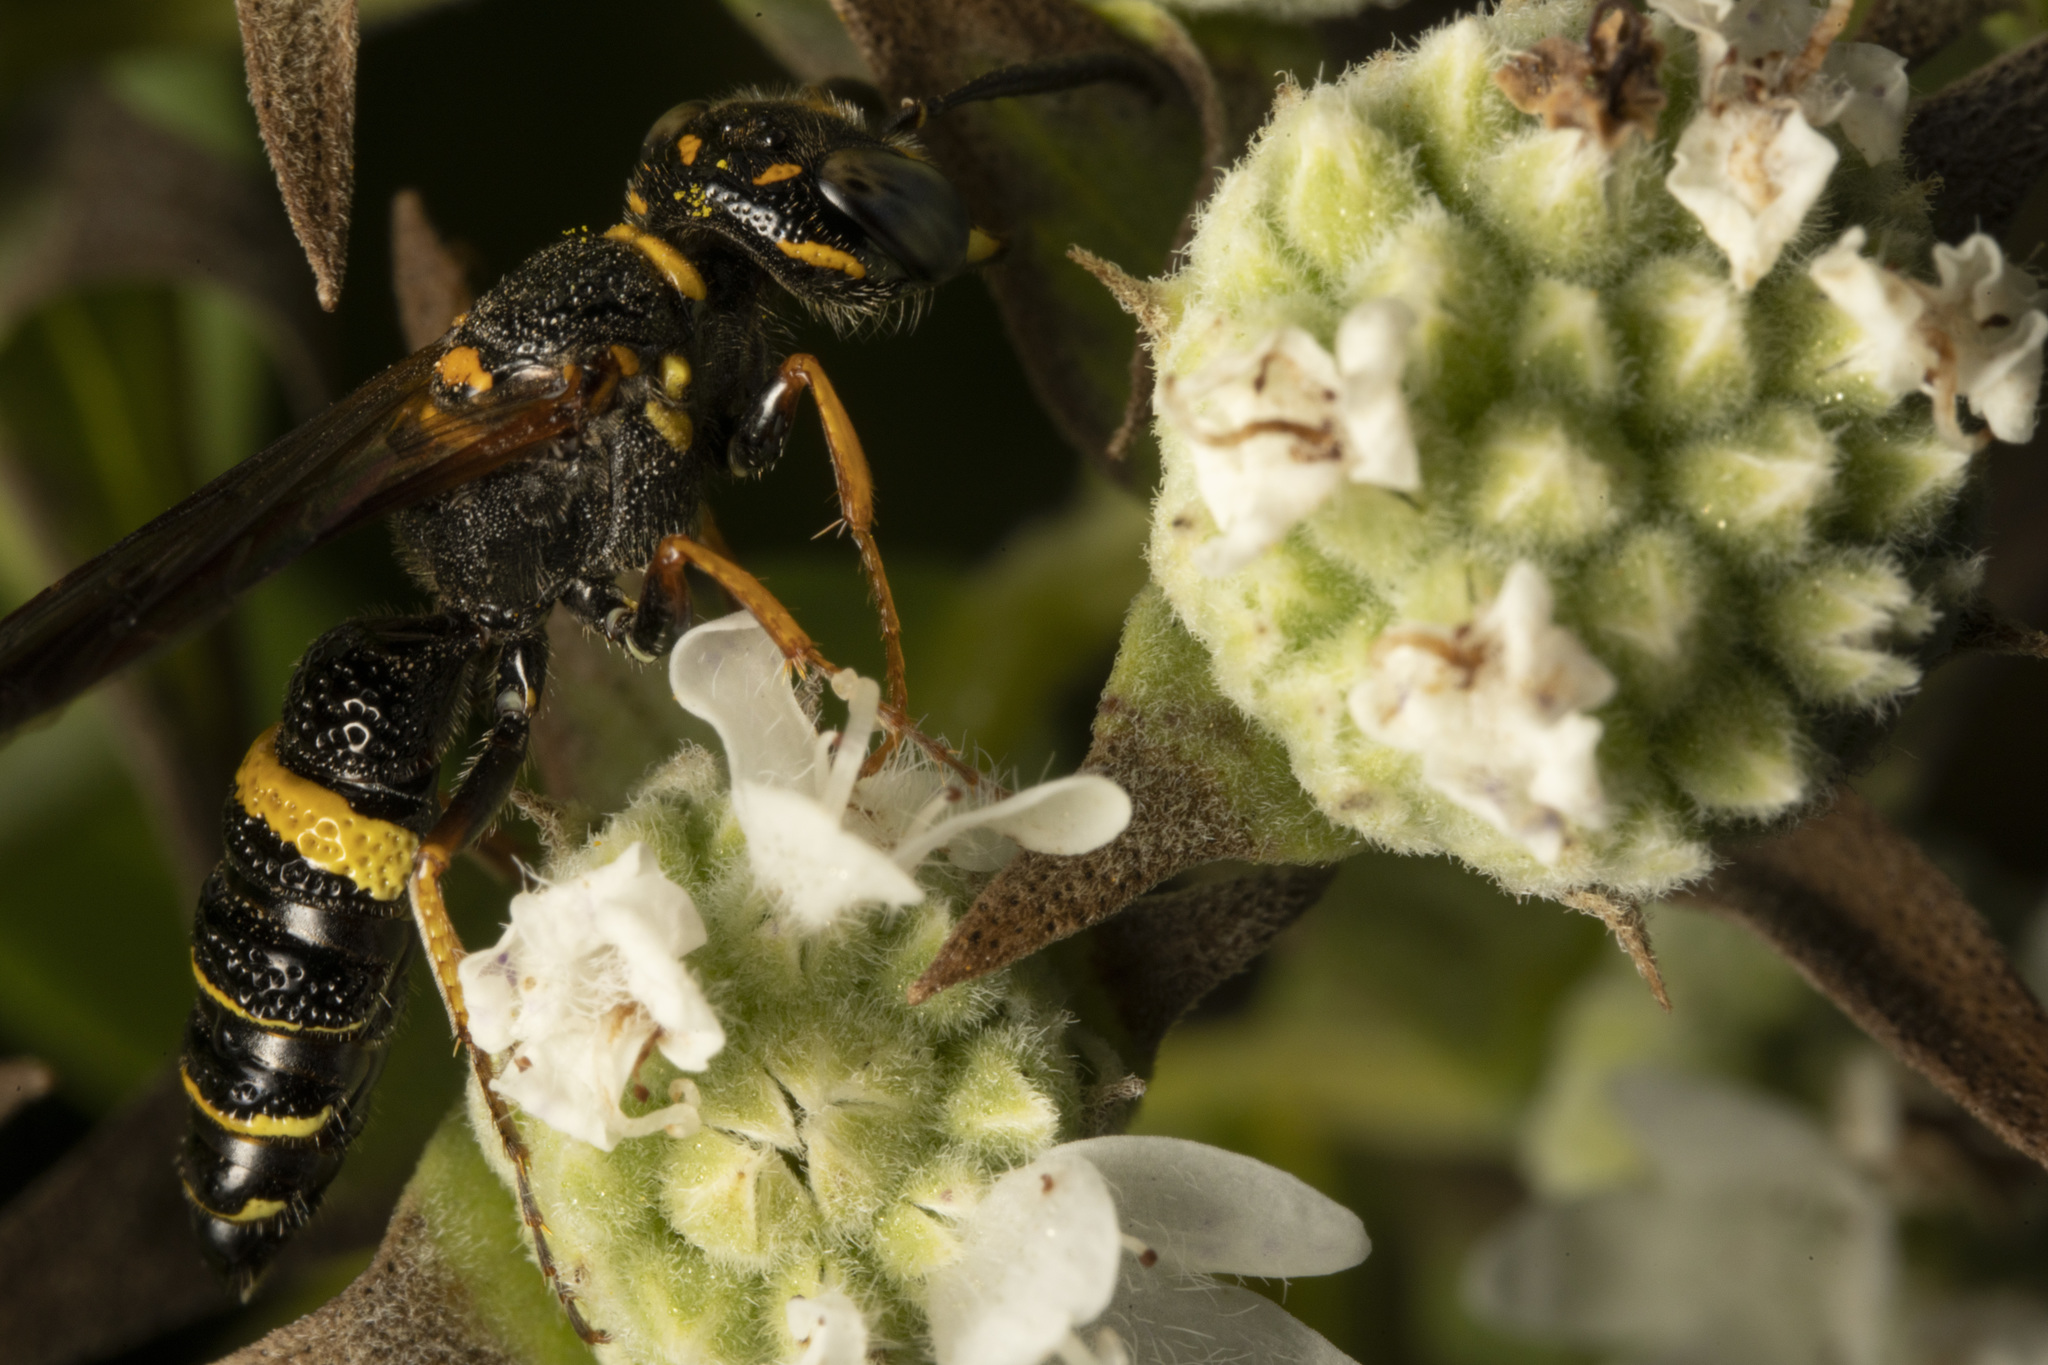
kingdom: Animalia
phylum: Arthropoda
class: Insecta
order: Hymenoptera
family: Crabronidae
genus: Philanthus
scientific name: Philanthus gibbosus
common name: Humped beewolf
